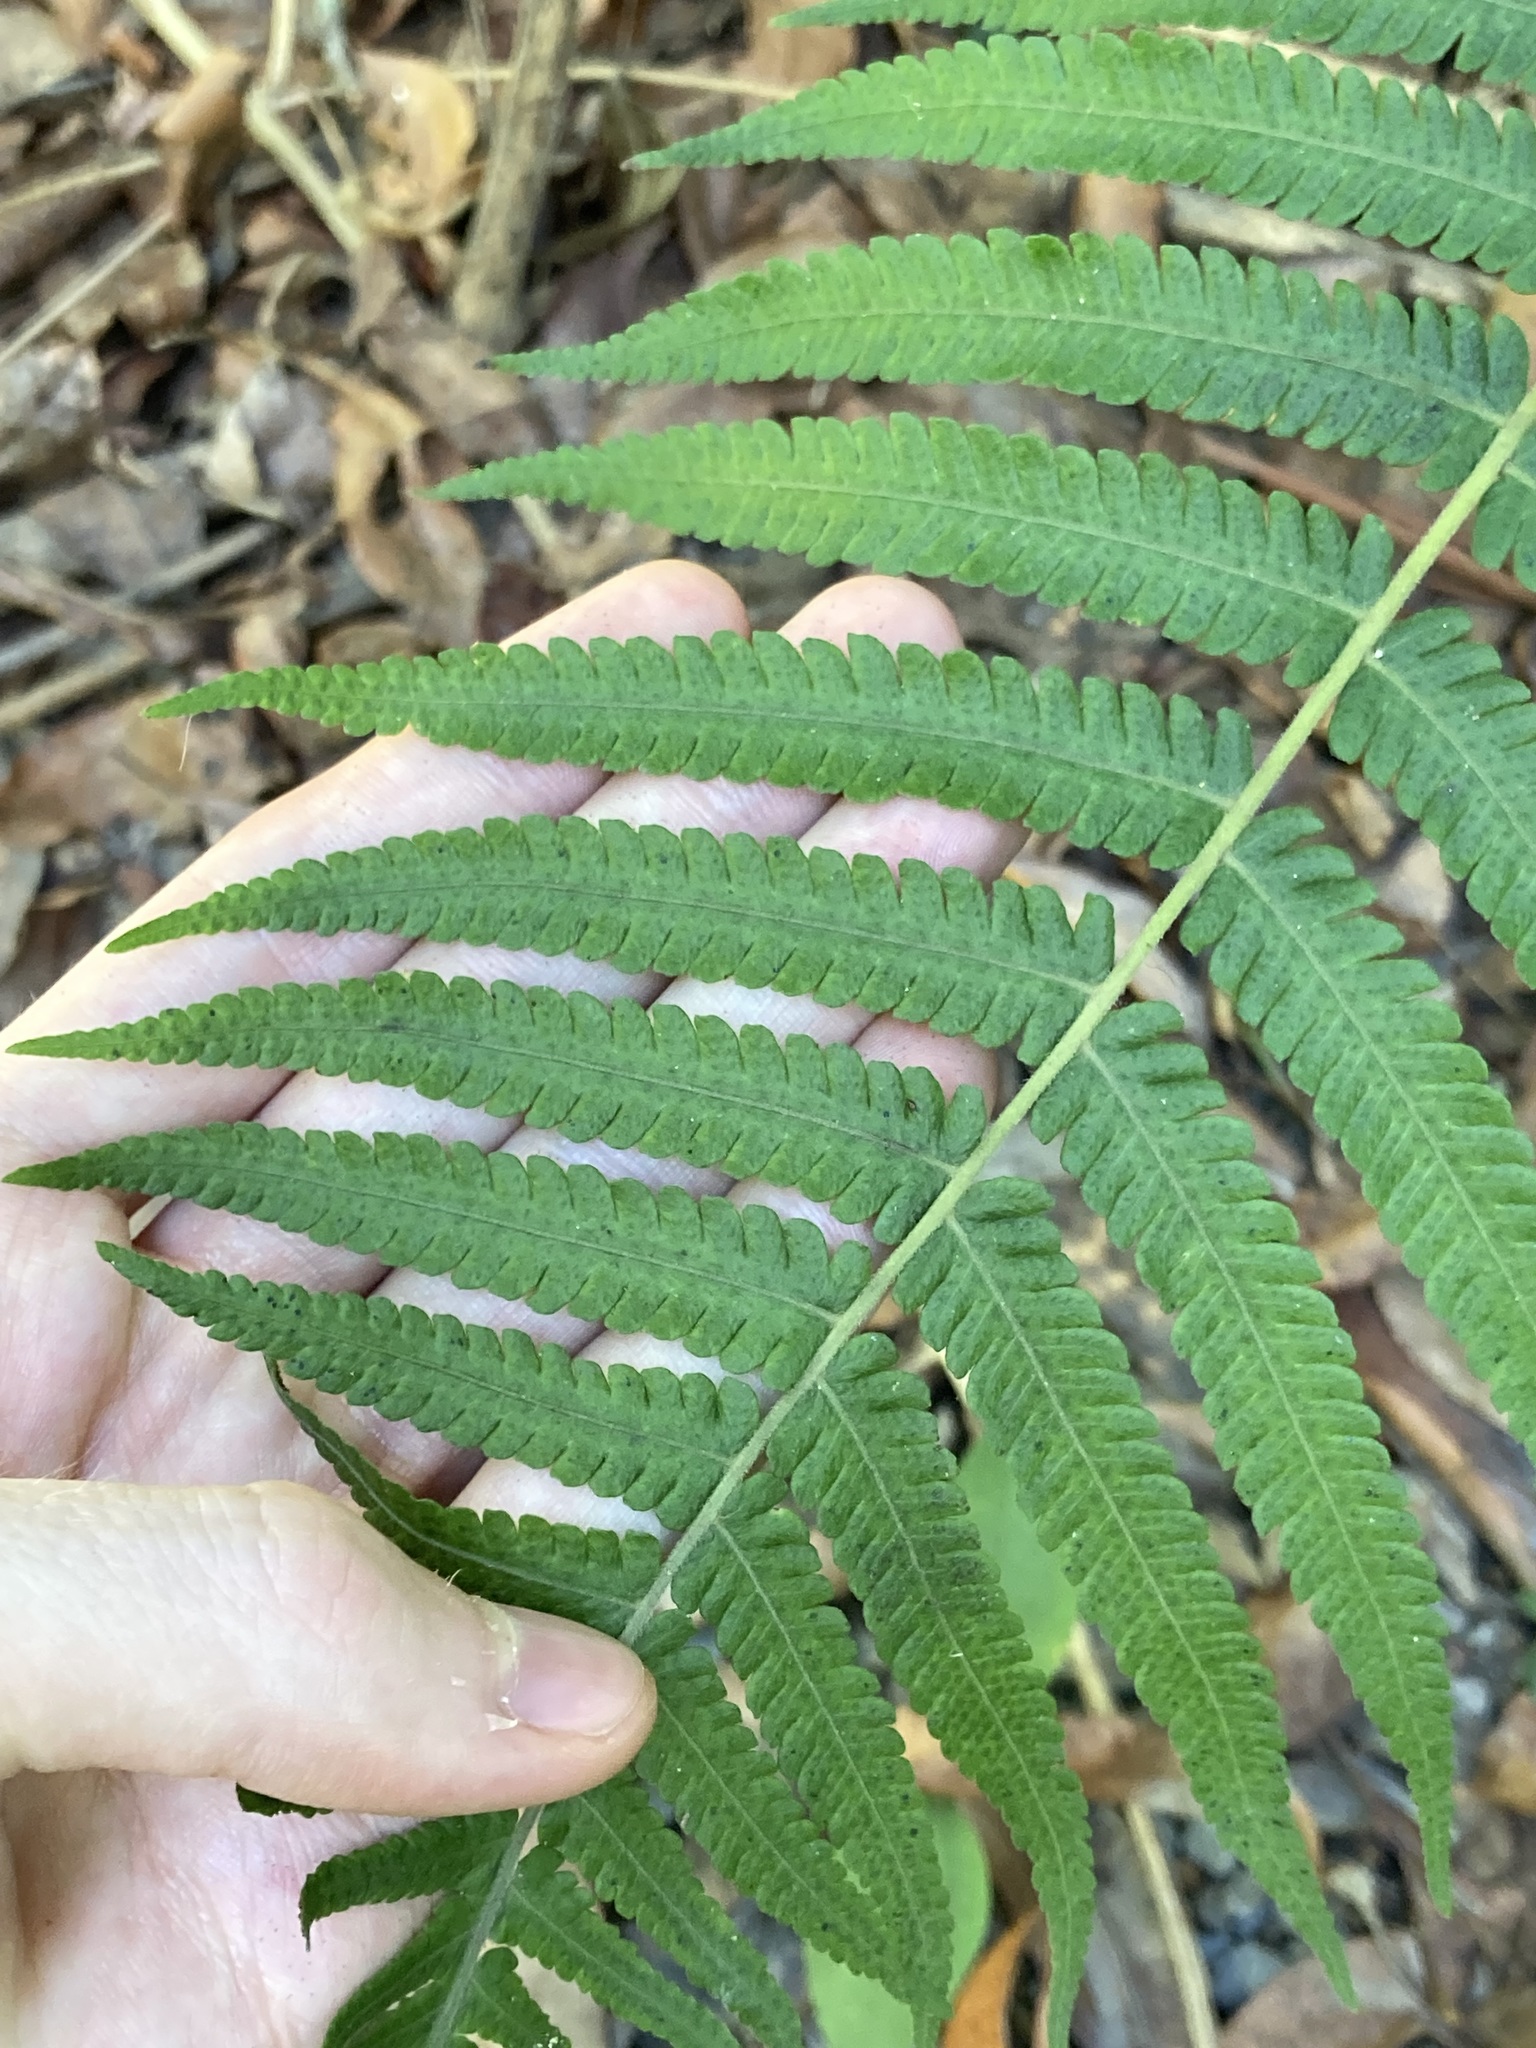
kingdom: Plantae
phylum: Tracheophyta
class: Polypodiopsida
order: Polypodiales
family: Thelypteridaceae
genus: Christella
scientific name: Christella dentata
